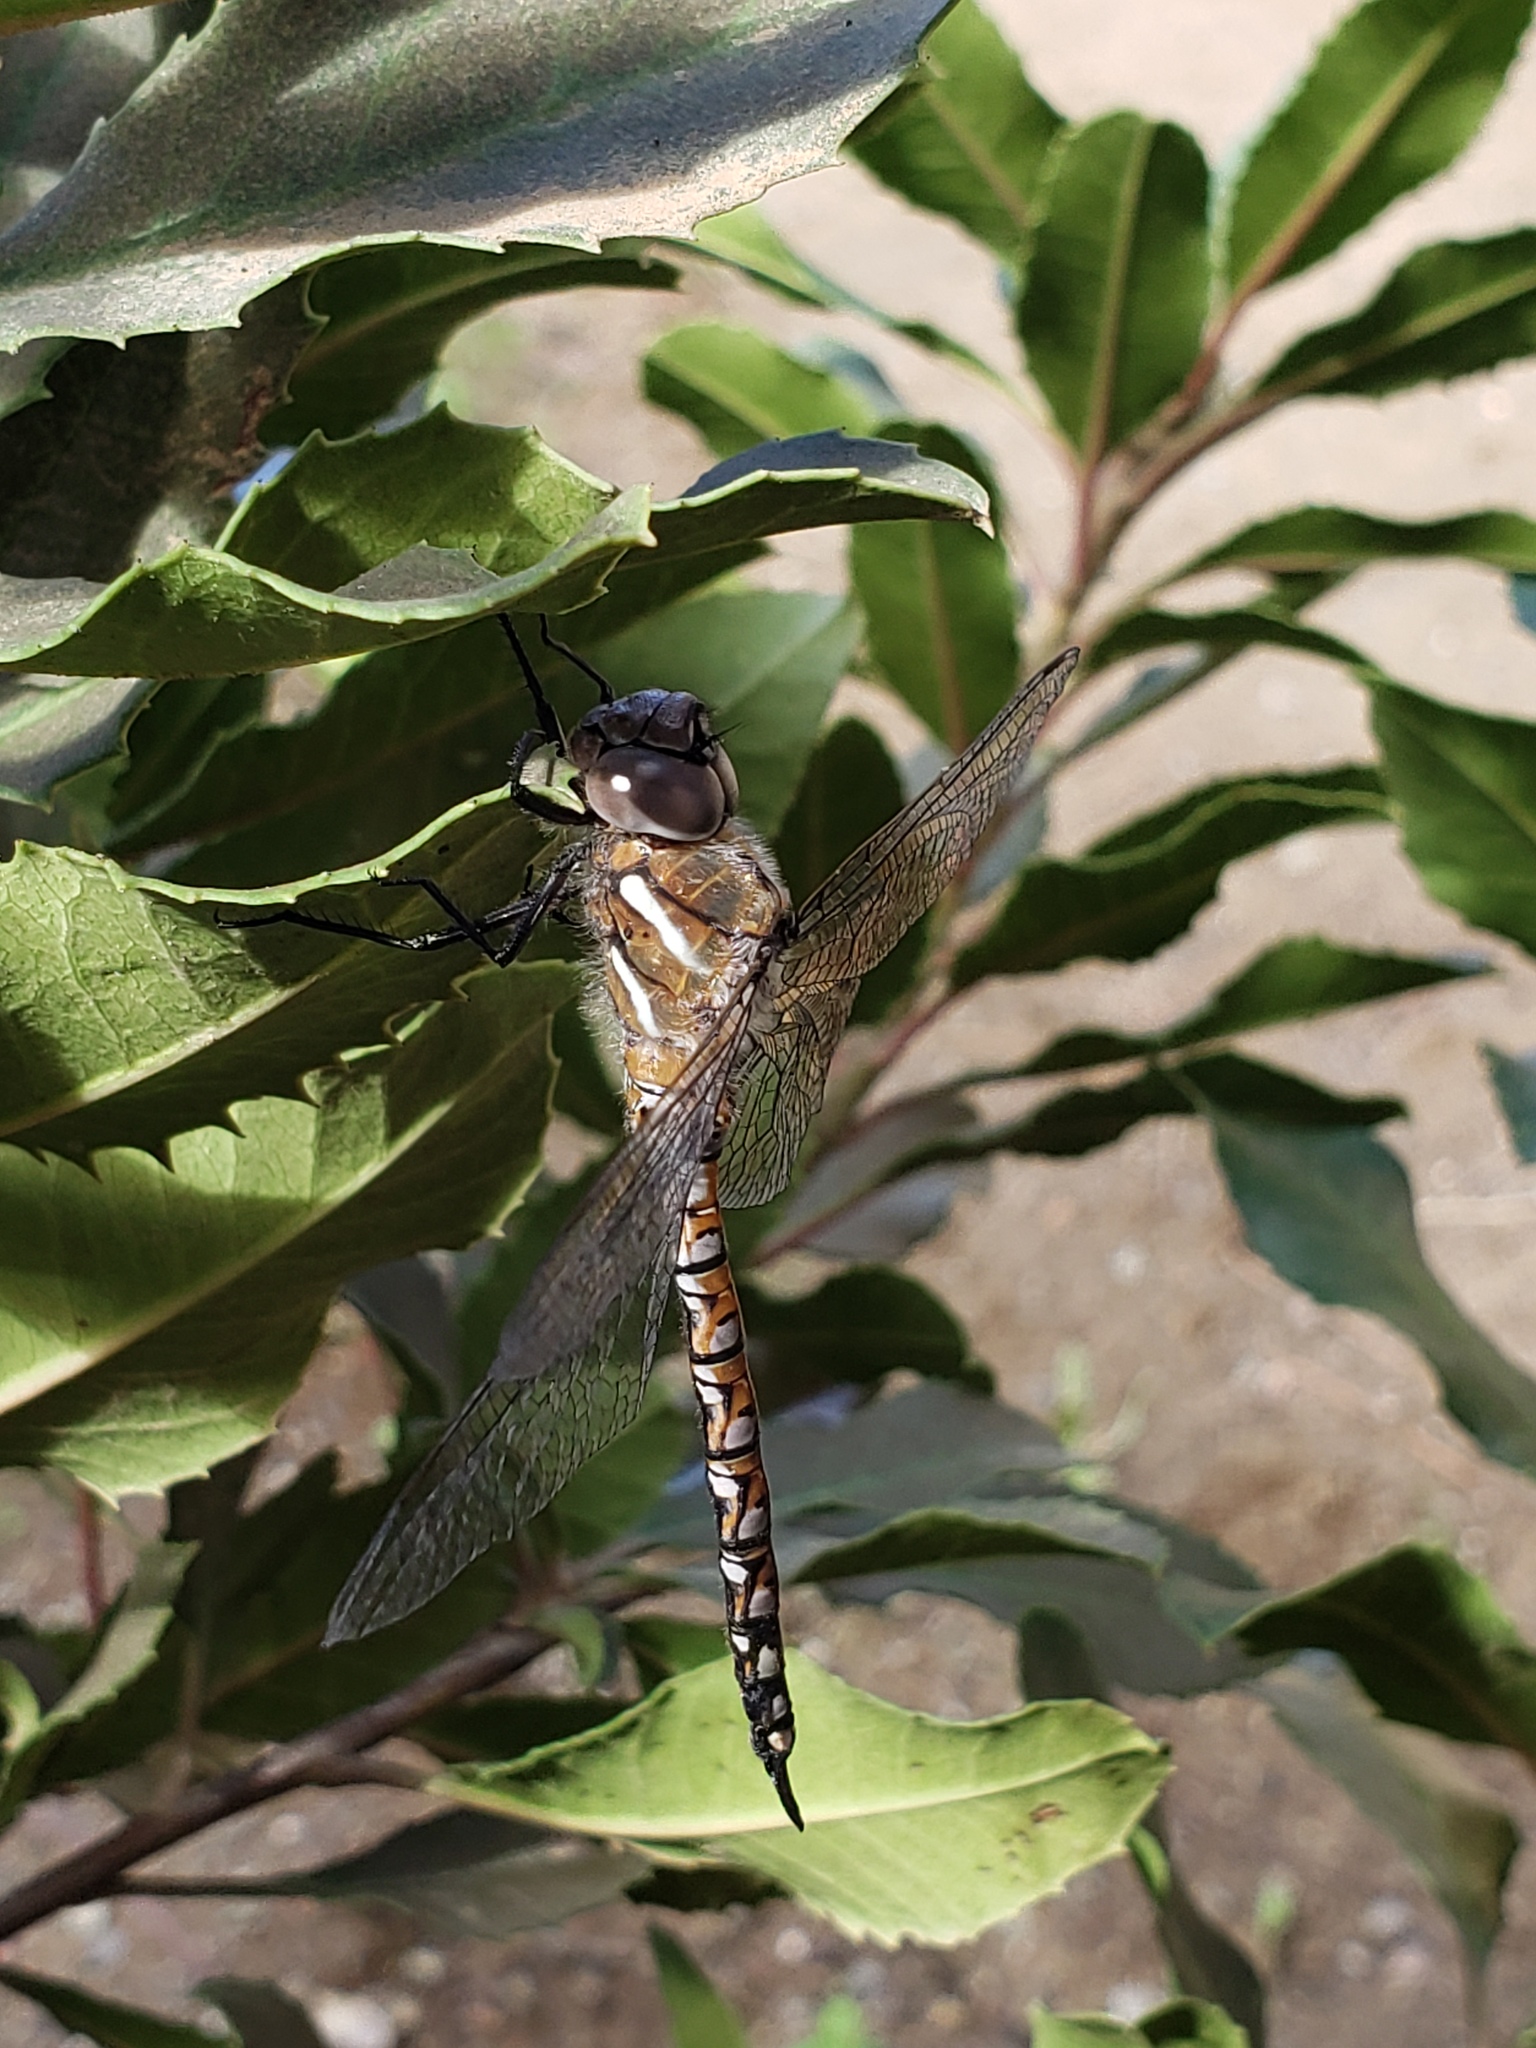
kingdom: Animalia
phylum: Arthropoda
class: Insecta
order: Odonata
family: Aeshnidae
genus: Rhionaeschna
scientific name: Rhionaeschna californica
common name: California darner
